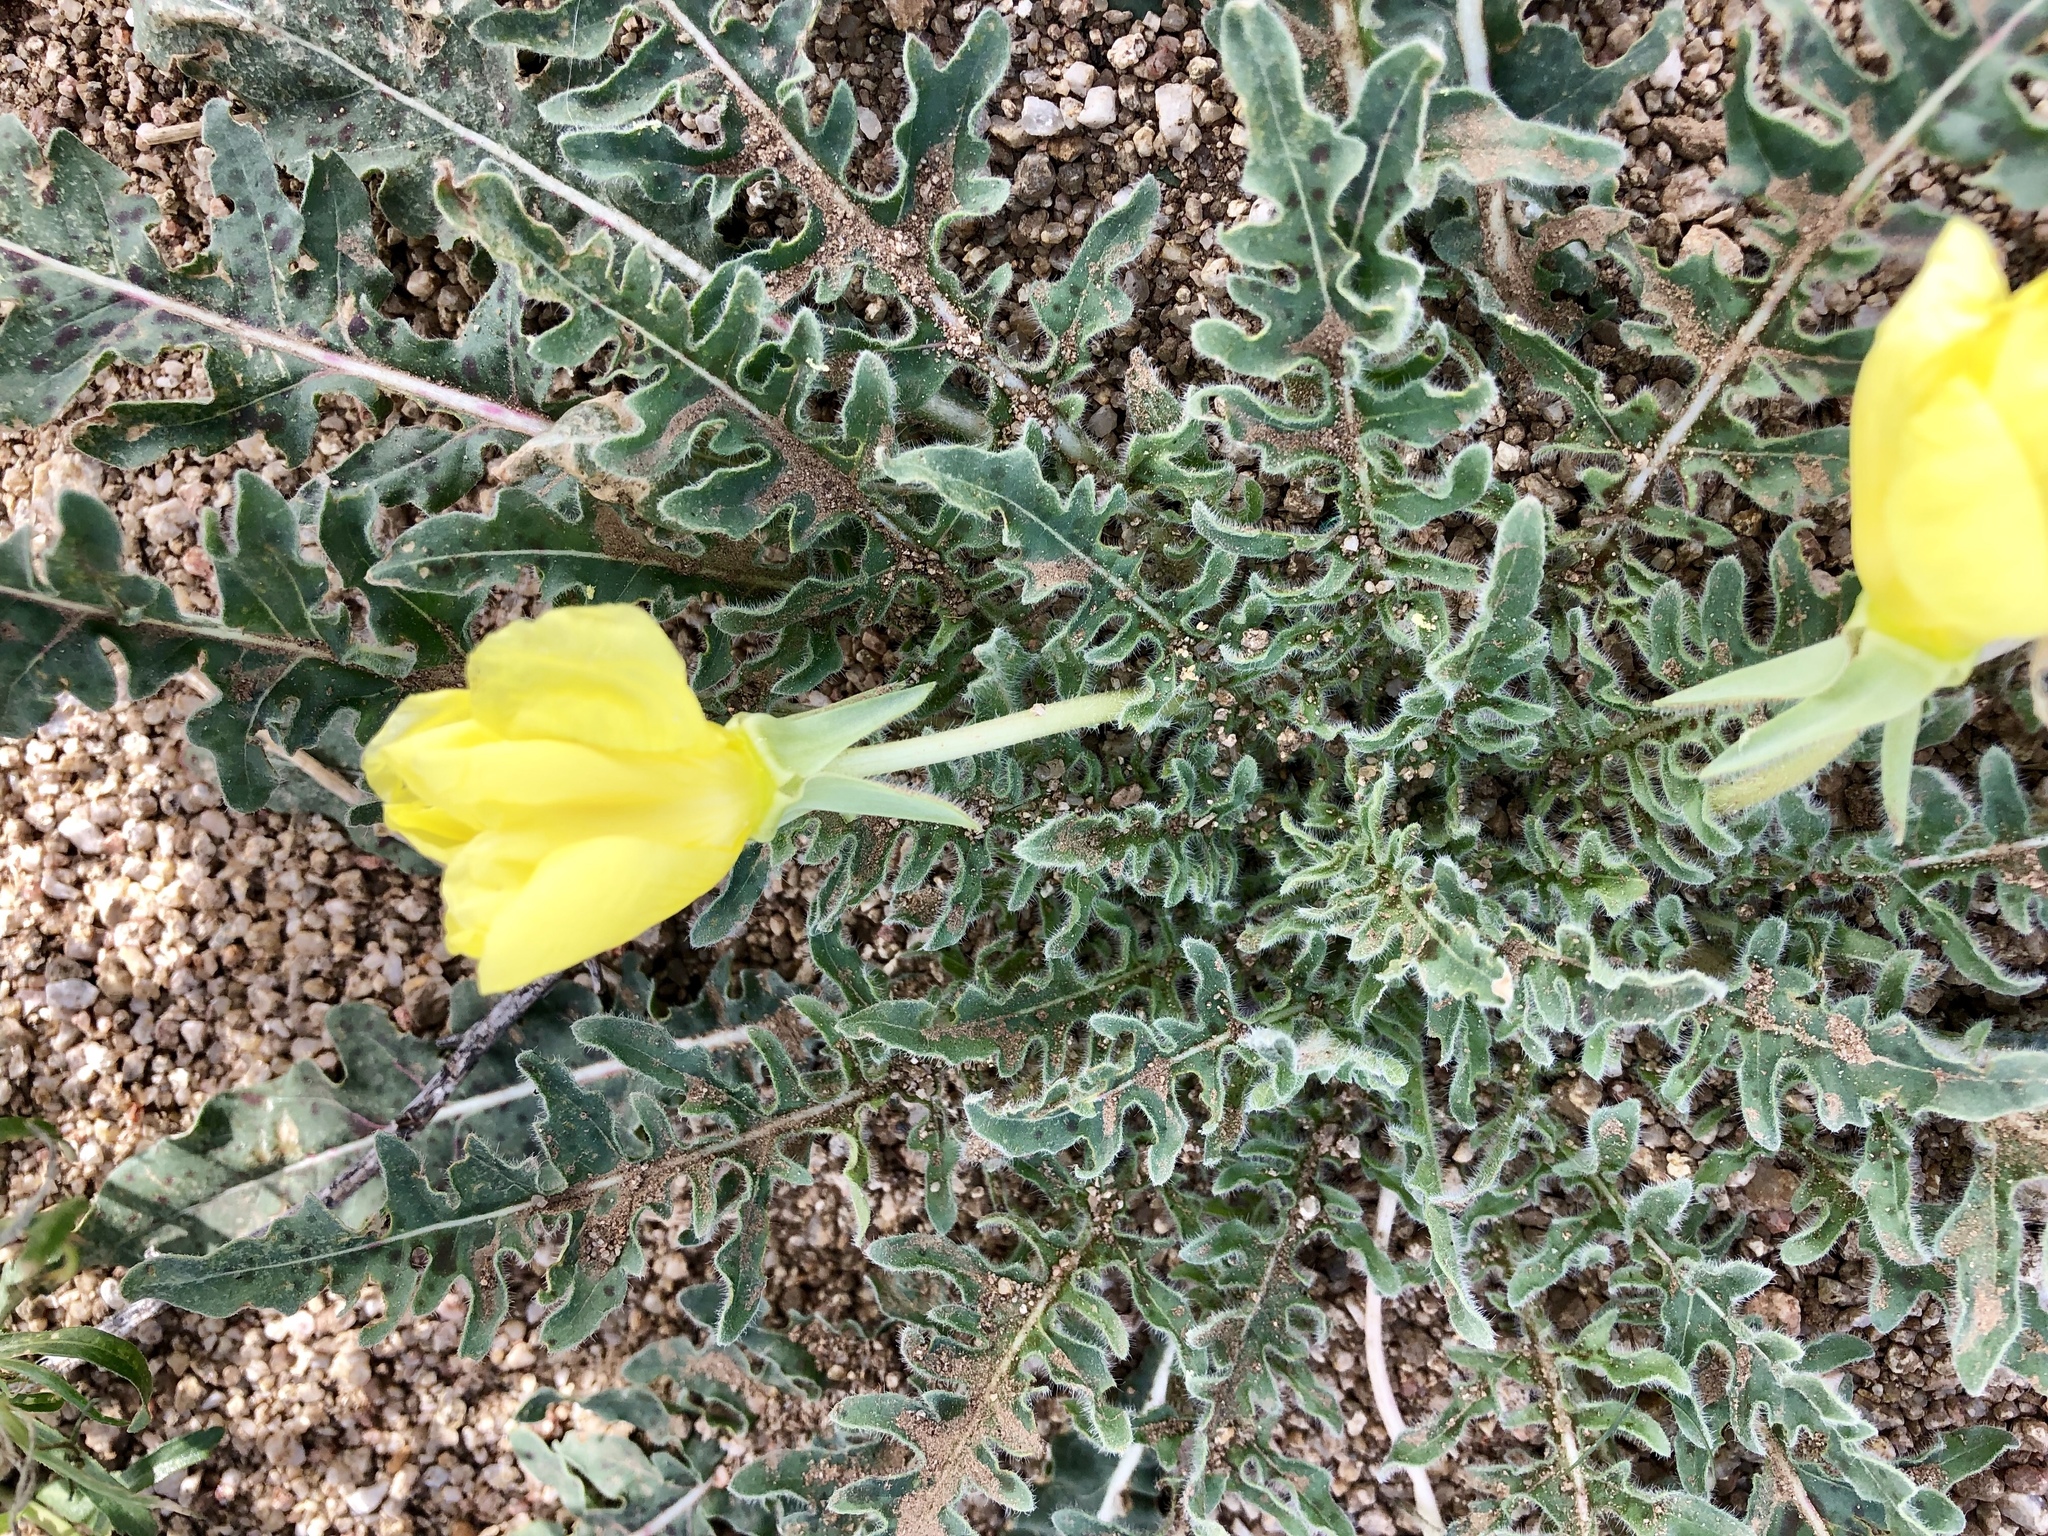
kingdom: Plantae
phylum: Tracheophyta
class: Magnoliopsida
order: Myrtales
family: Onagraceae
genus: Oenothera
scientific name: Oenothera primiveris
